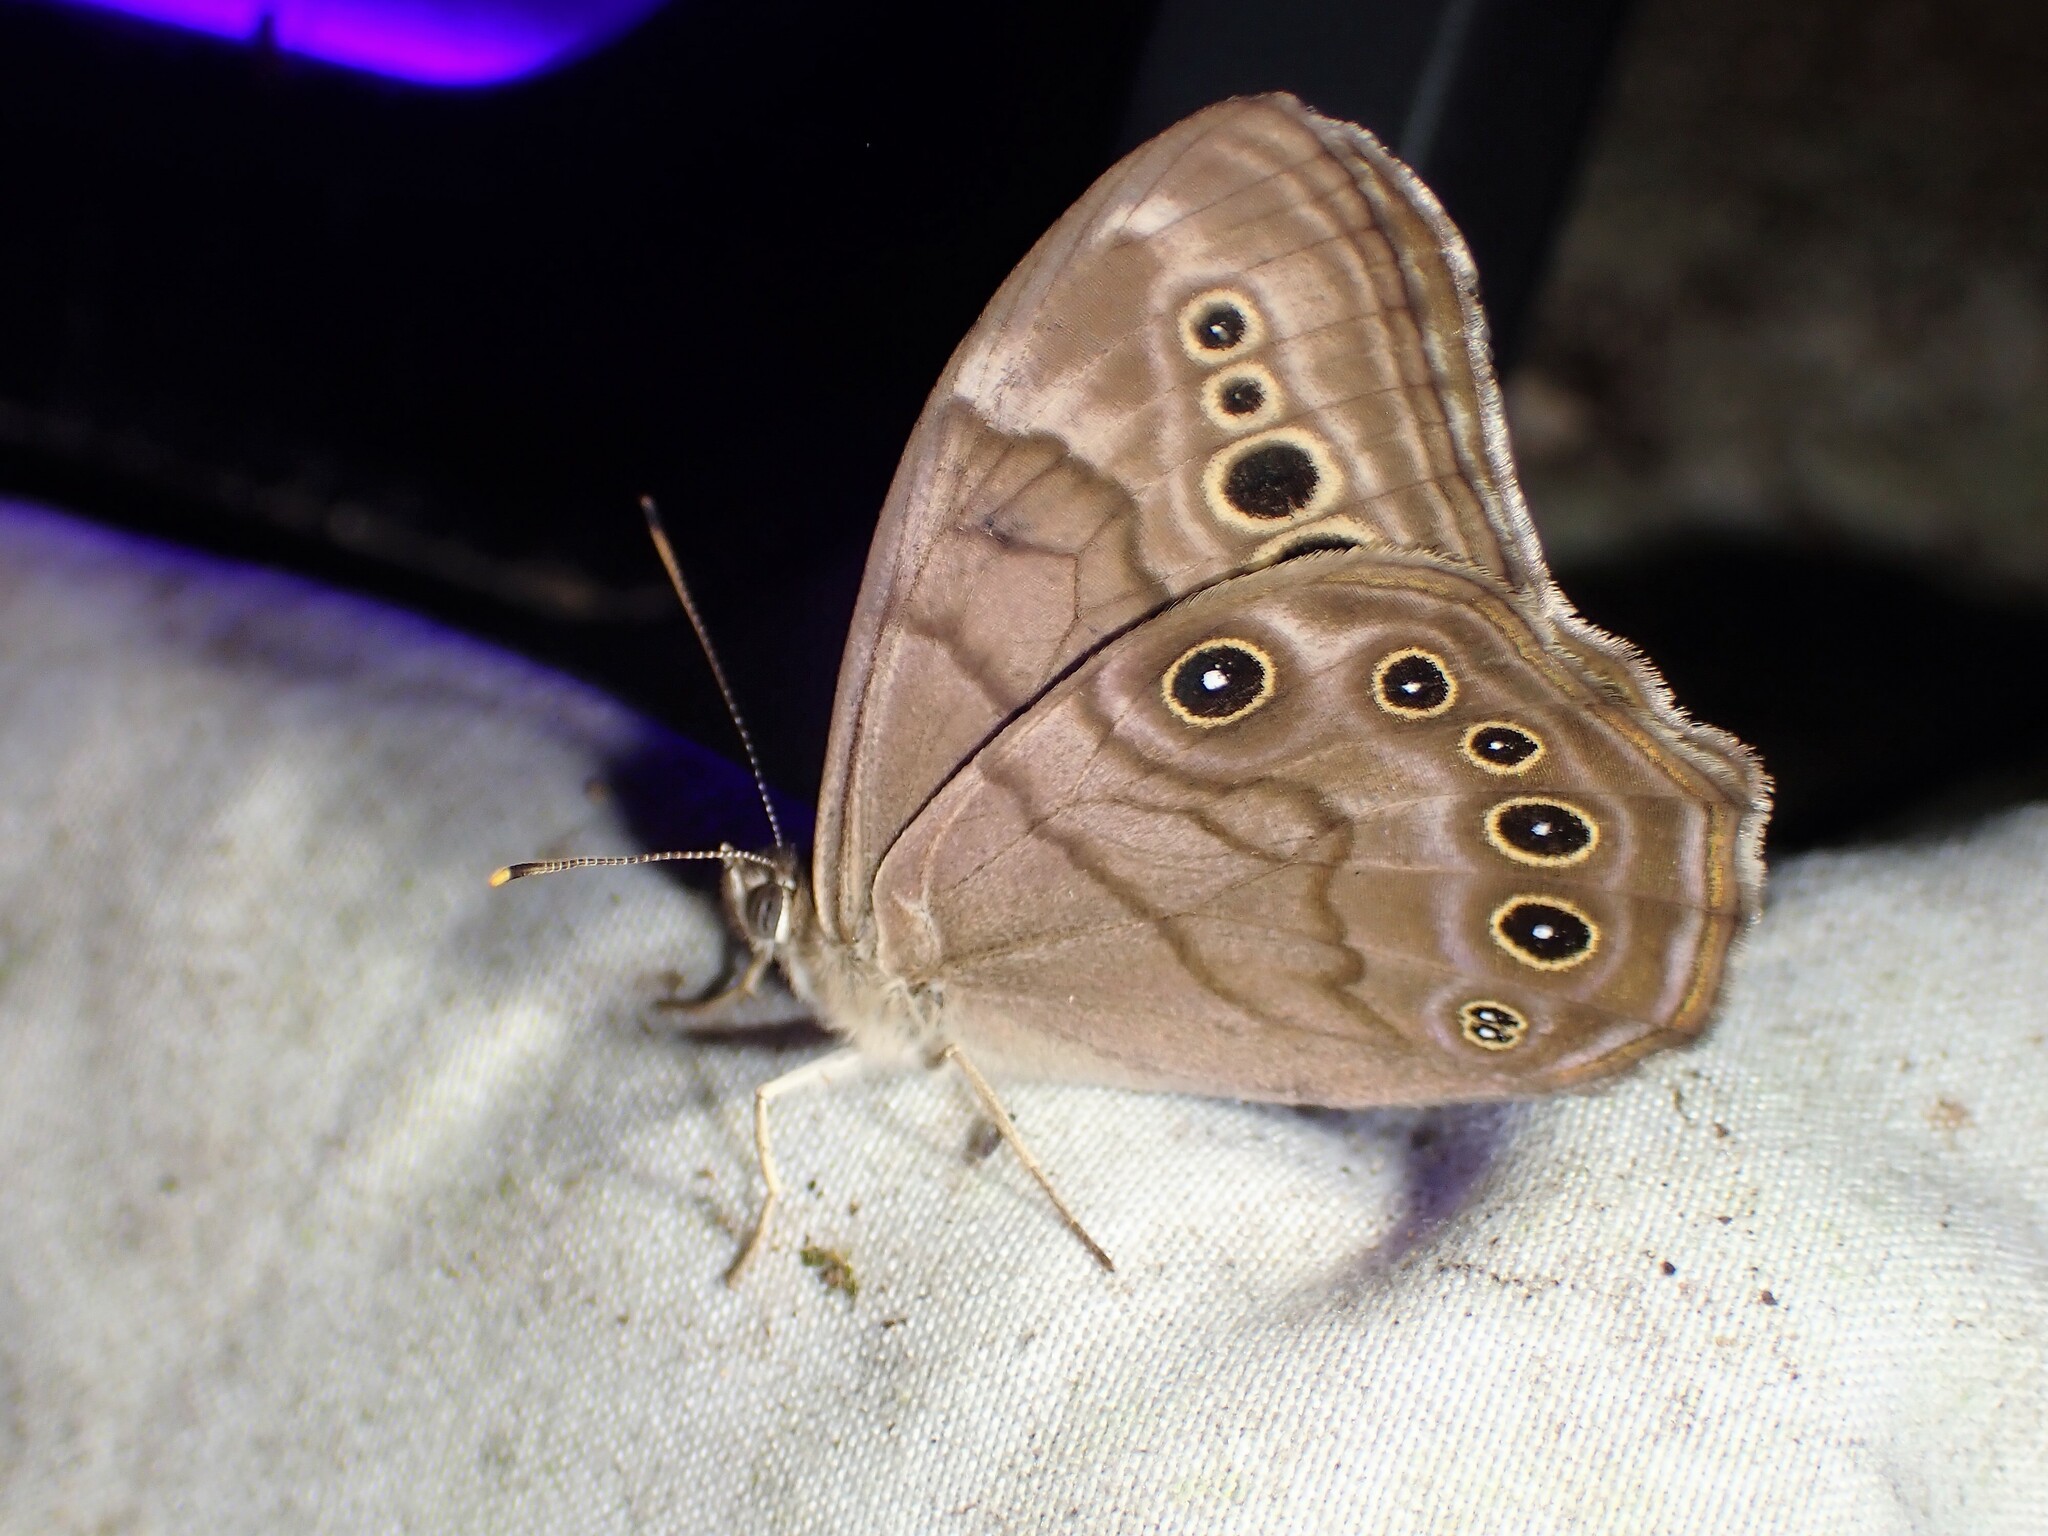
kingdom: Animalia
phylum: Arthropoda
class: Insecta
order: Lepidoptera
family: Nymphalidae
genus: Lethe
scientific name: Lethe anthedon
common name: Northern pearly-eye
